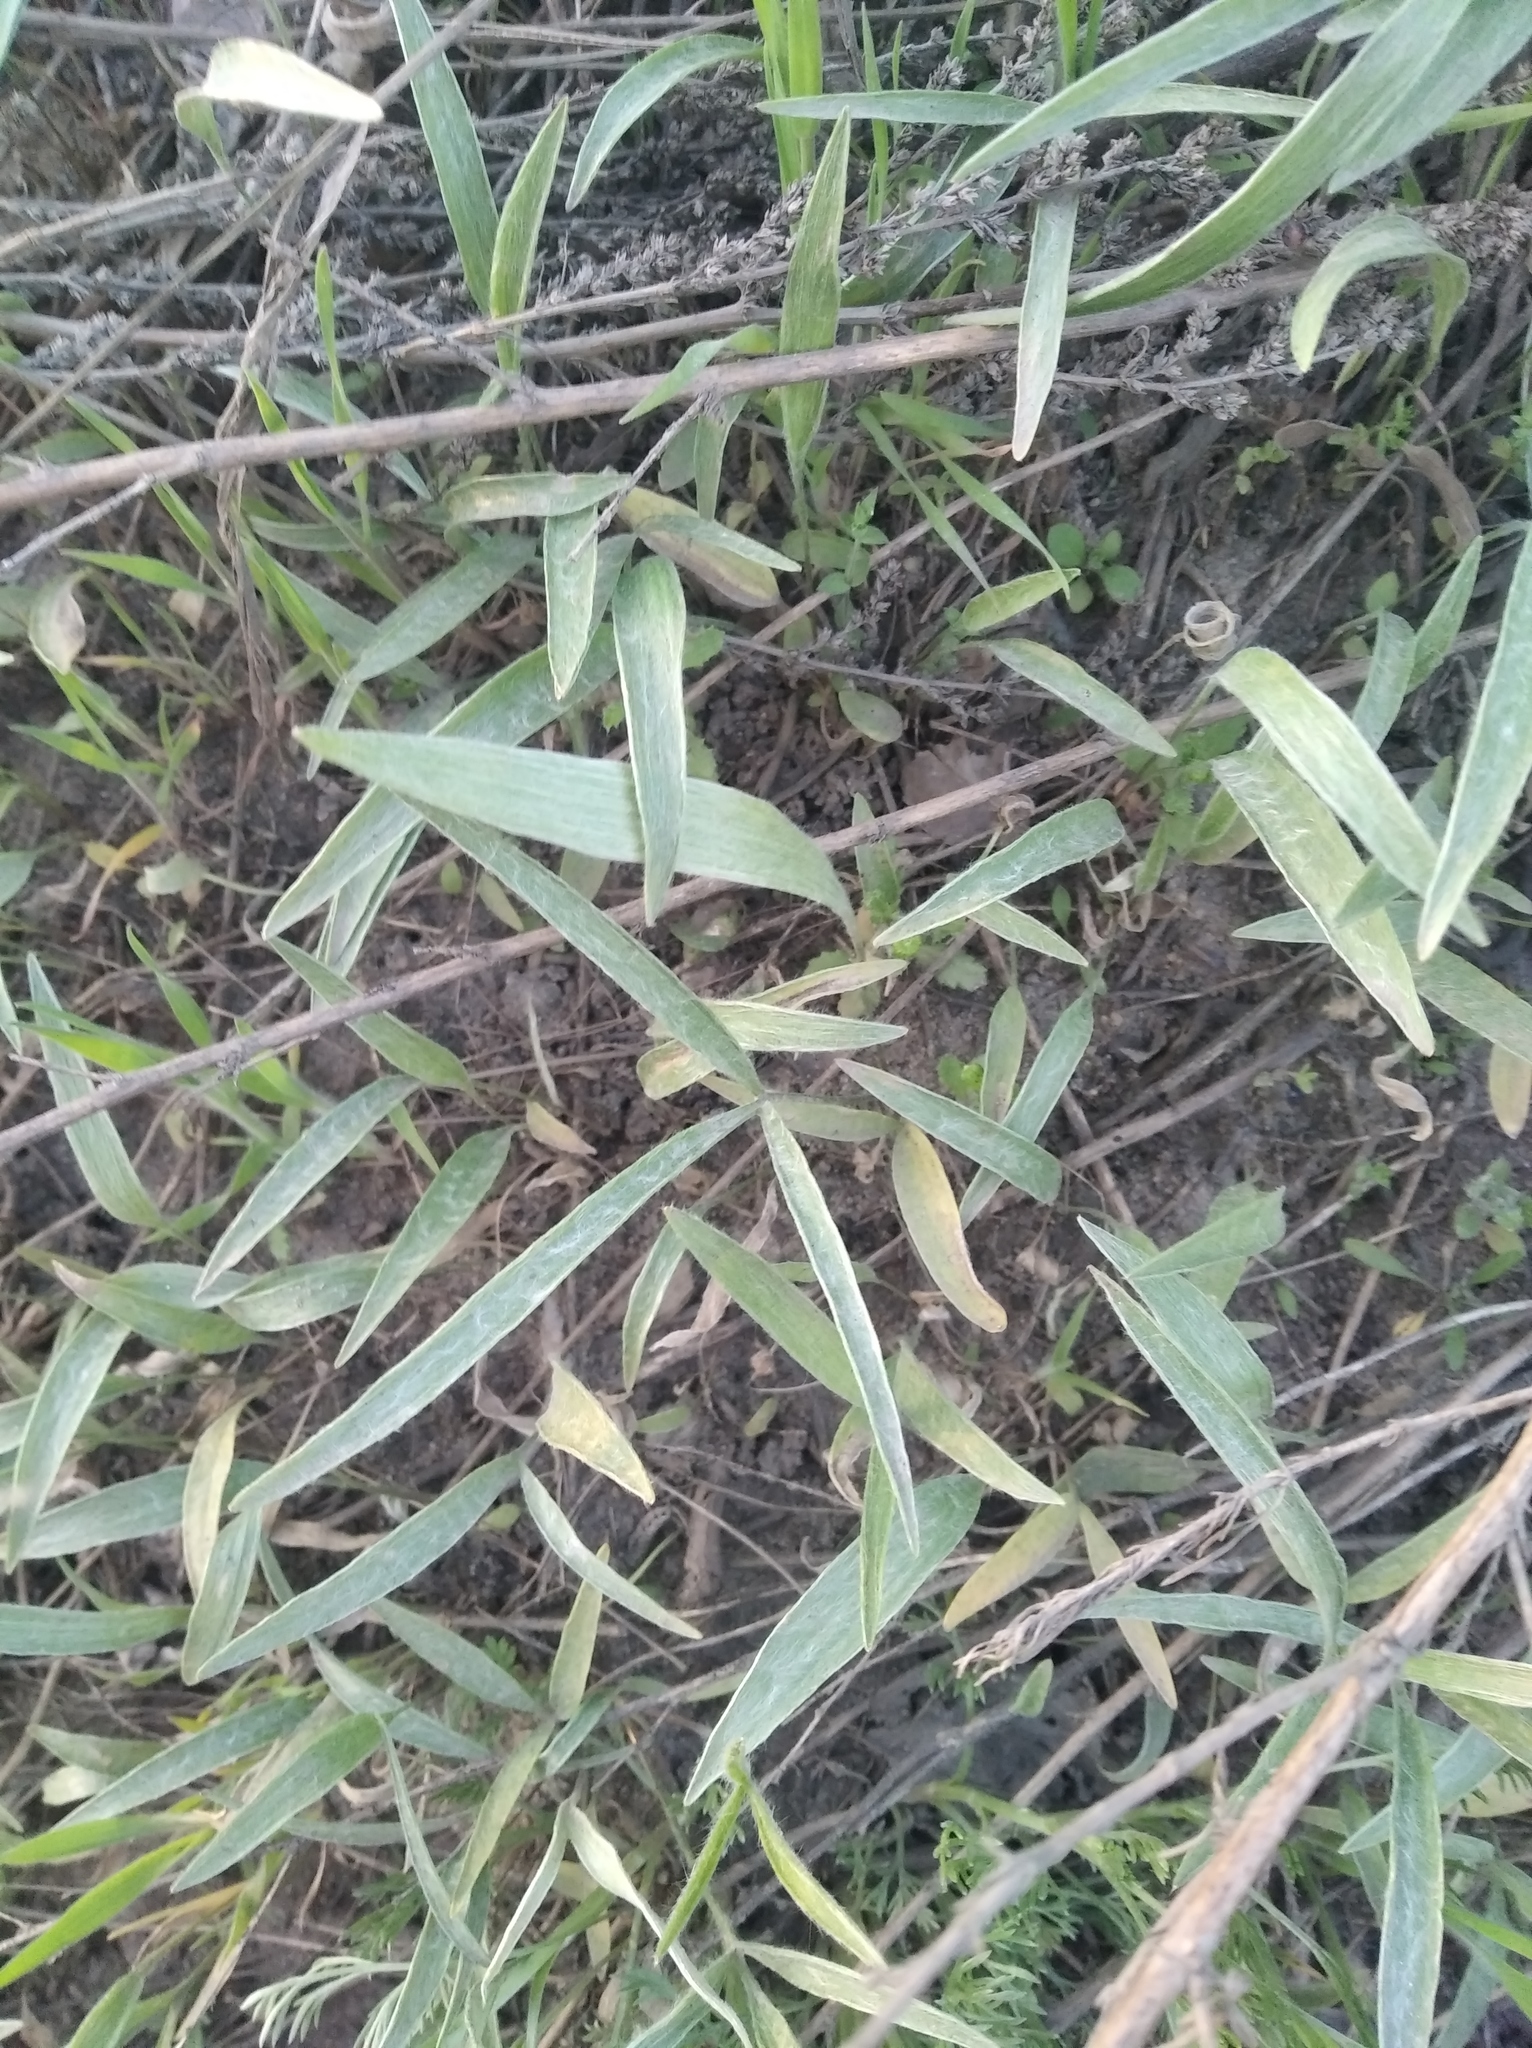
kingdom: Plantae
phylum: Tracheophyta
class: Magnoliopsida
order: Ranunculales
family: Ranunculaceae
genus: Ranunculus
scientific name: Ranunculus illyricus
